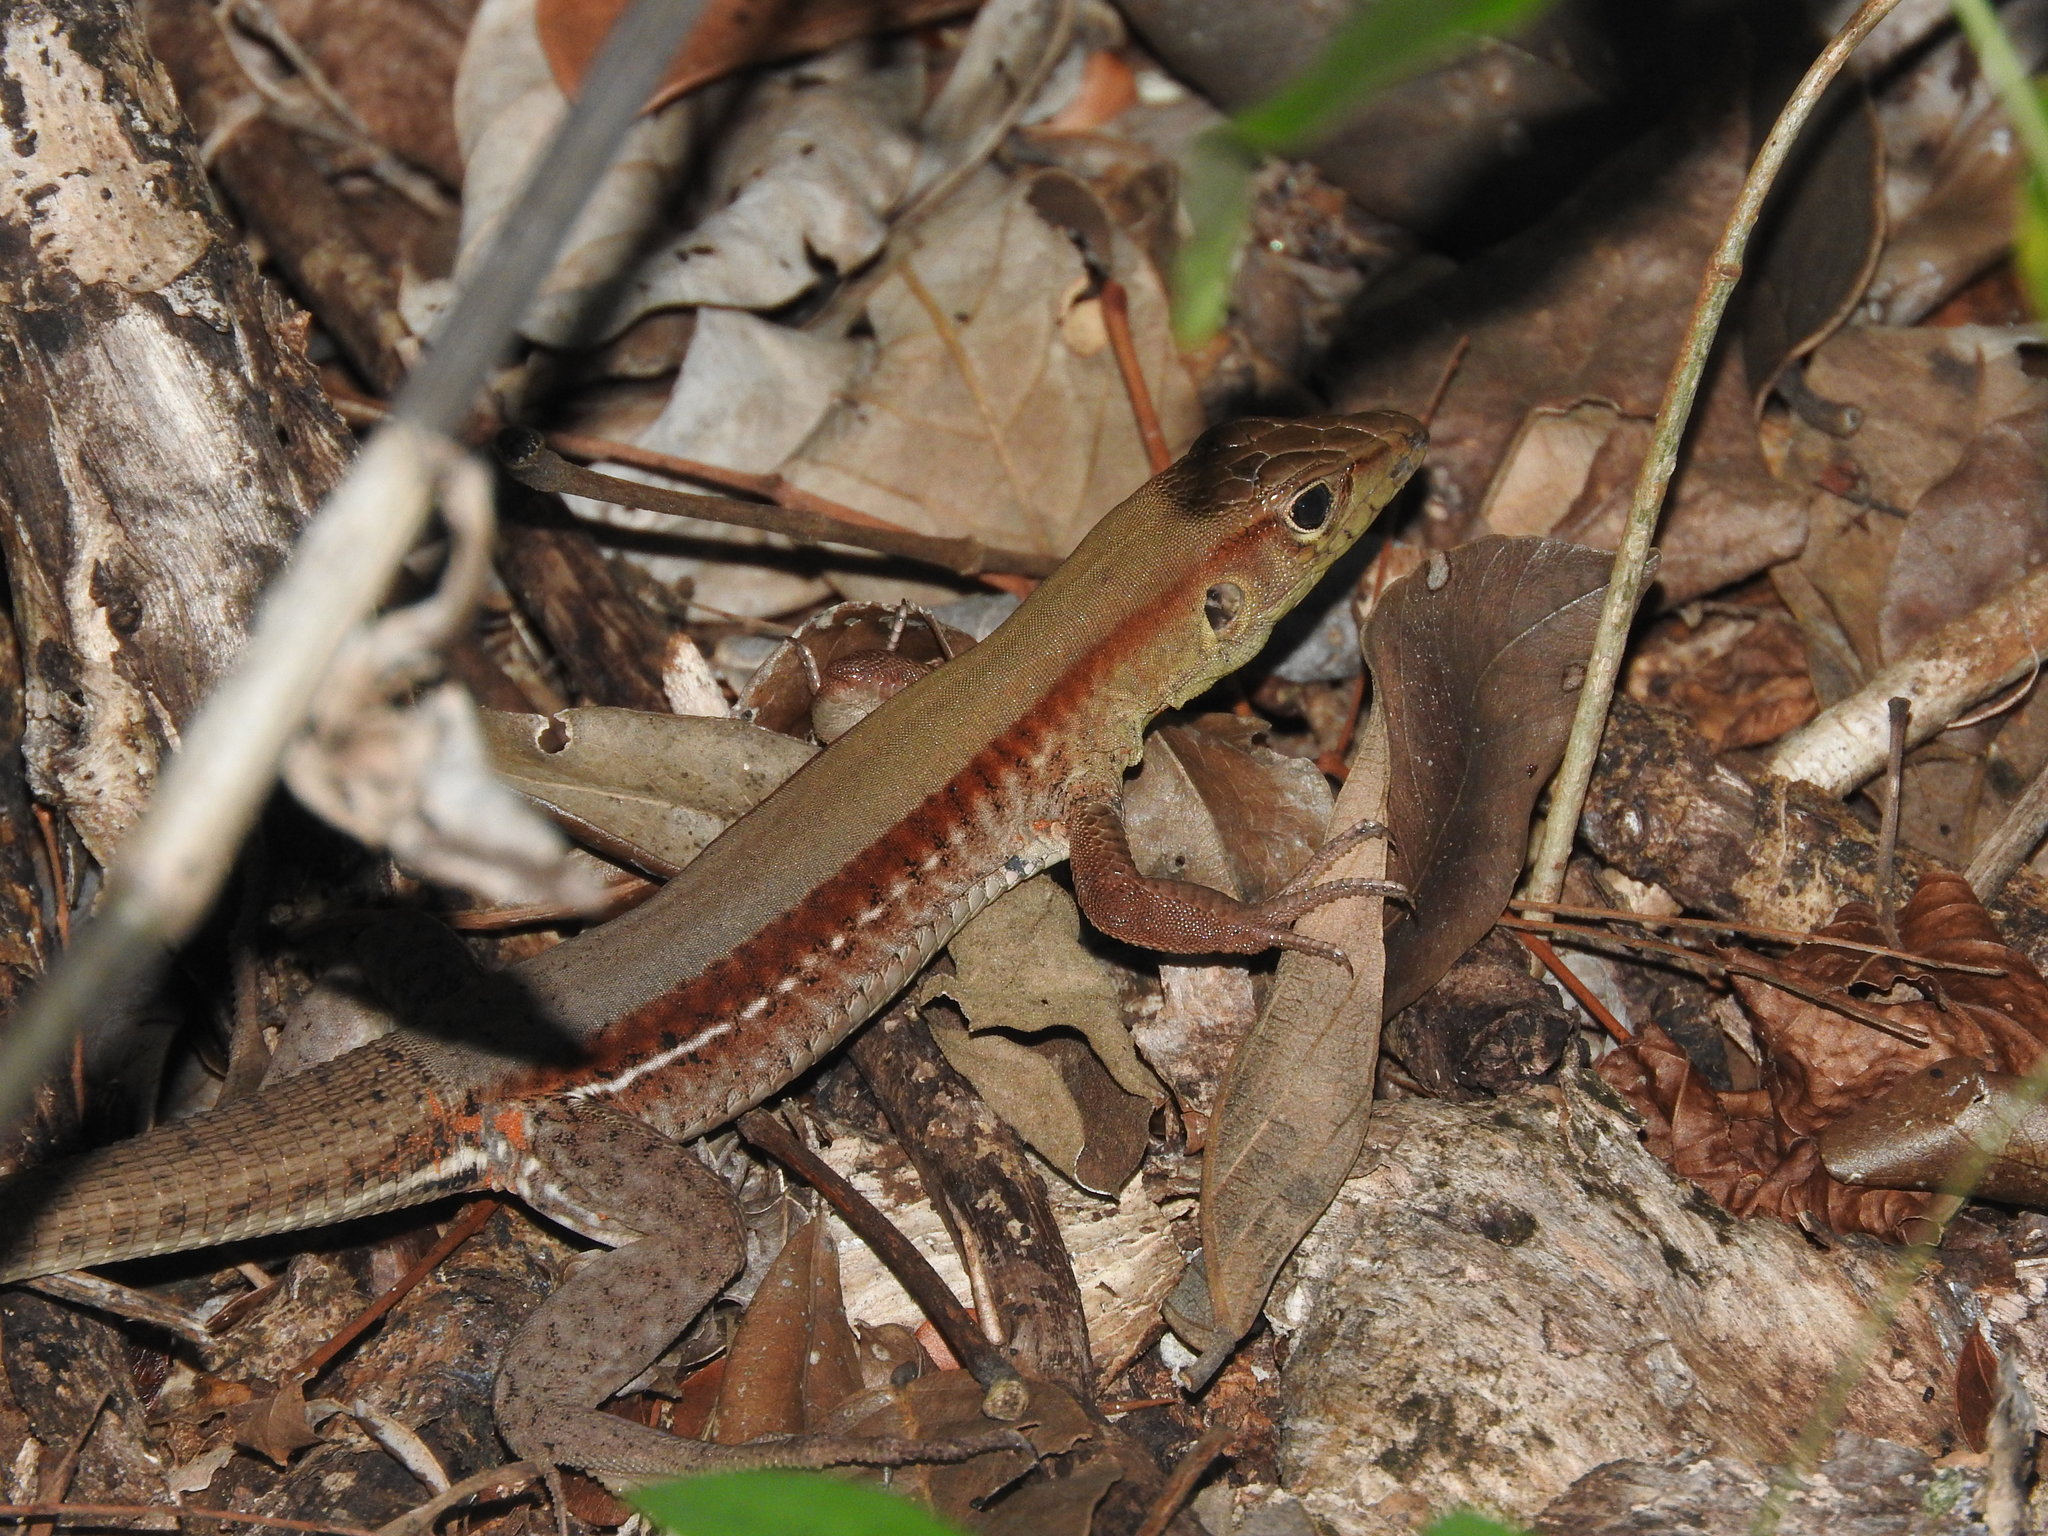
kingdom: Animalia
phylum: Chordata
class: Squamata
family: Teiidae
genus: Holcosus
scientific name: Holcosus gaigeae
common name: Rainbow ameiva
